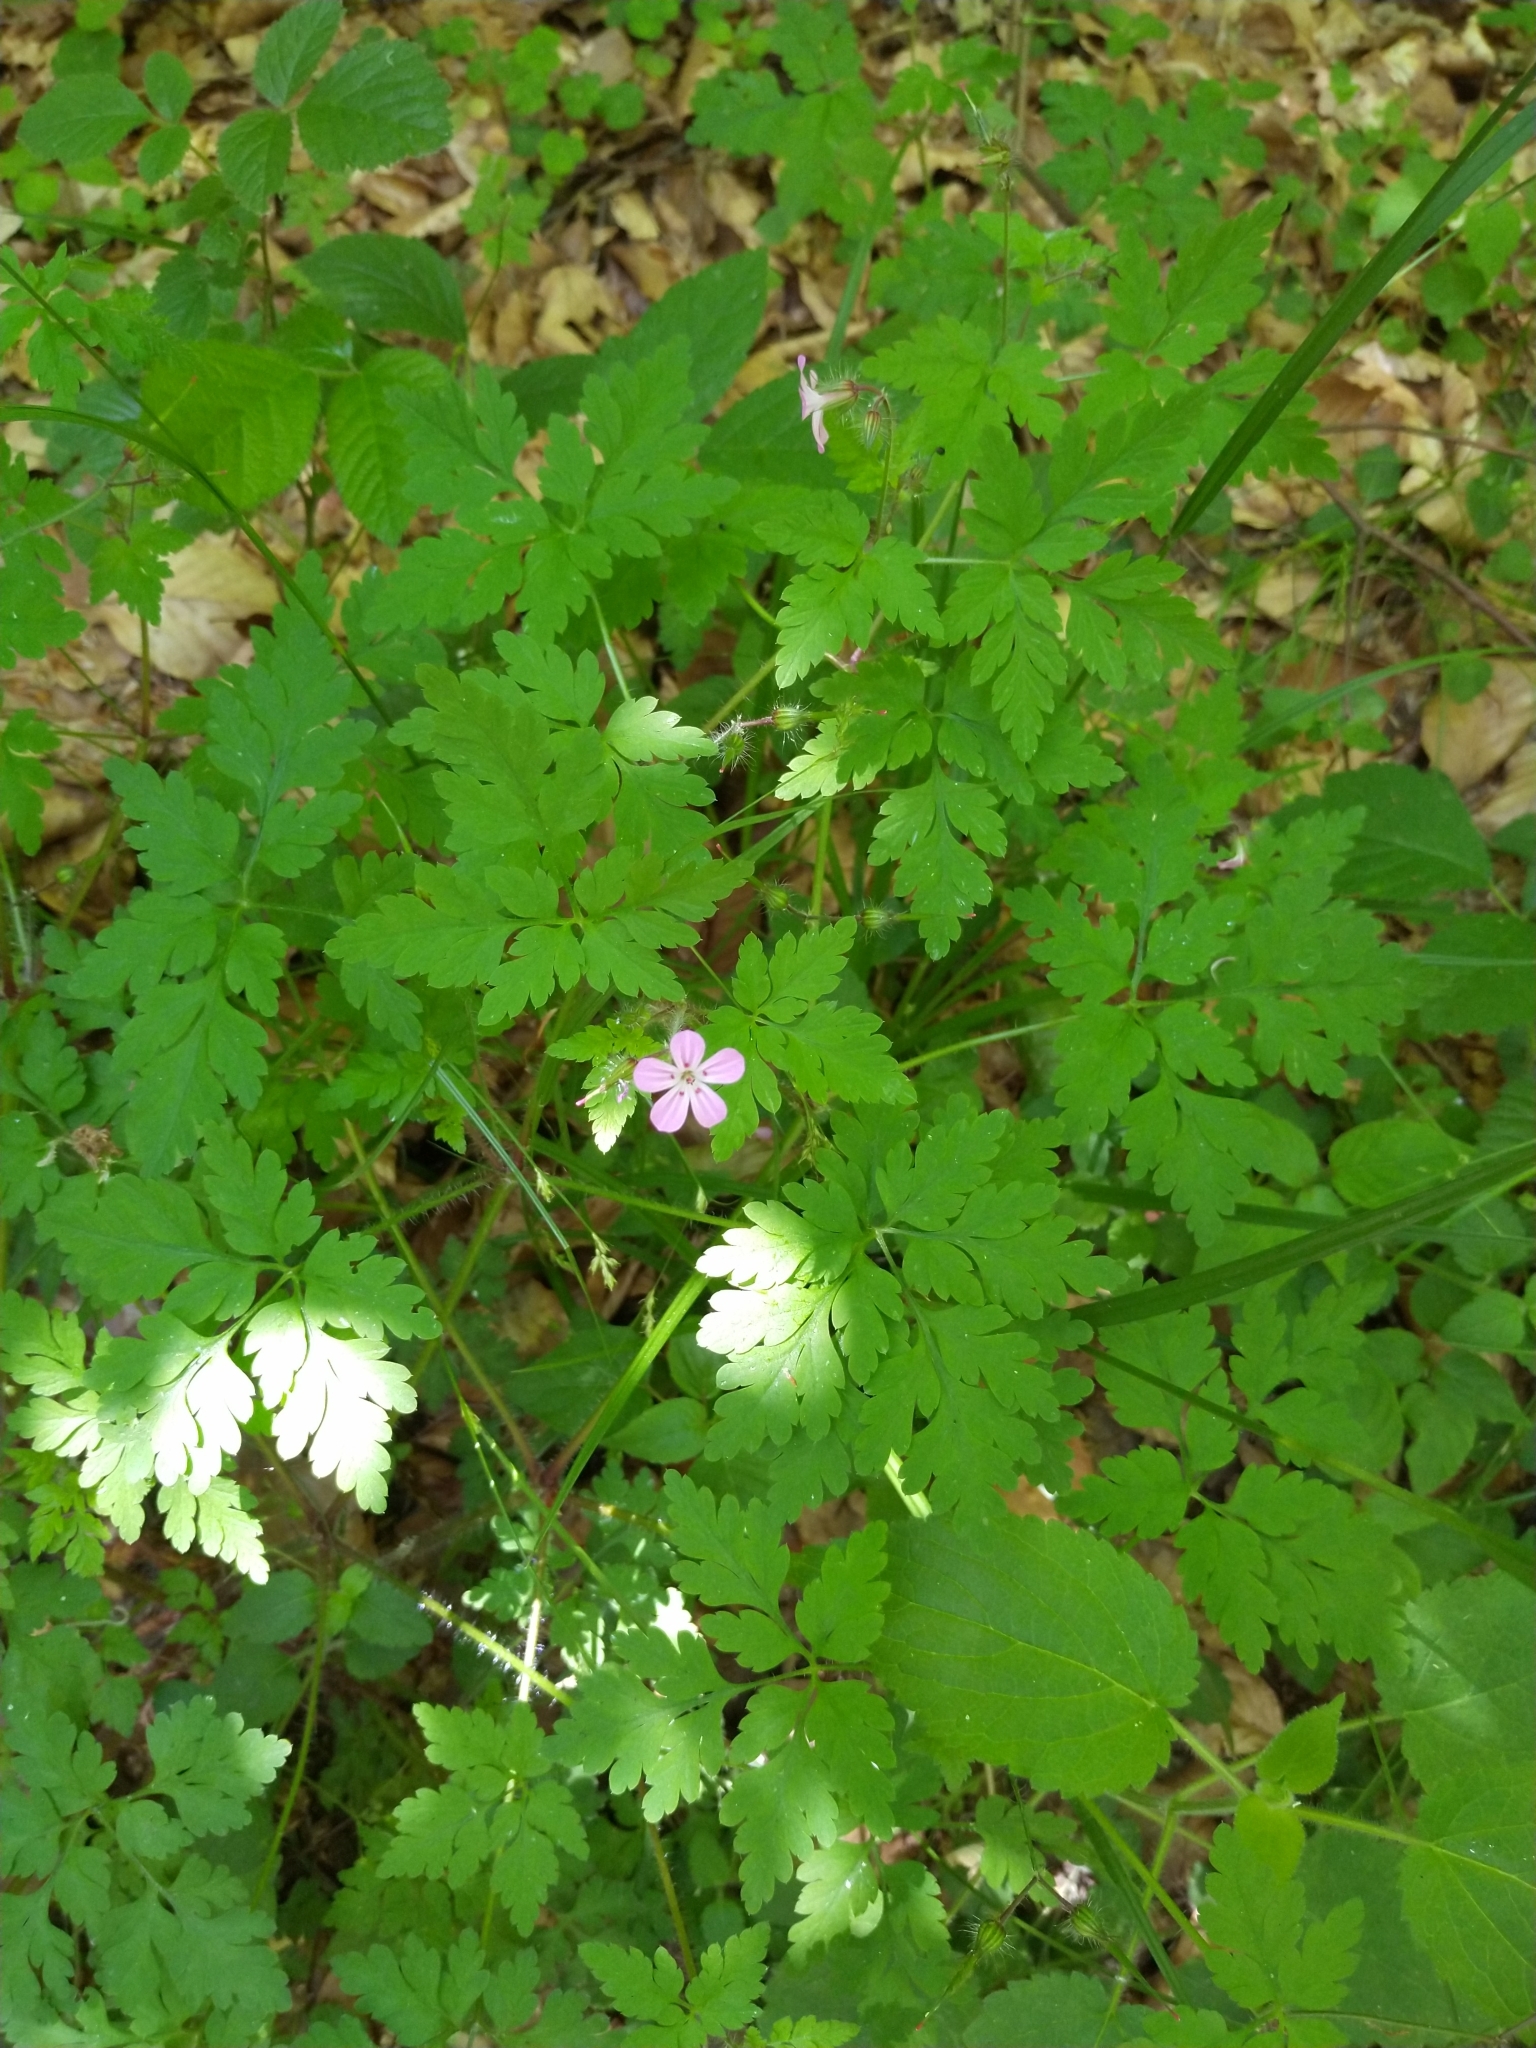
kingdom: Plantae
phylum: Tracheophyta
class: Magnoliopsida
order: Geraniales
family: Geraniaceae
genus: Geranium
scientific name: Geranium robertianum
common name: Herb-robert
